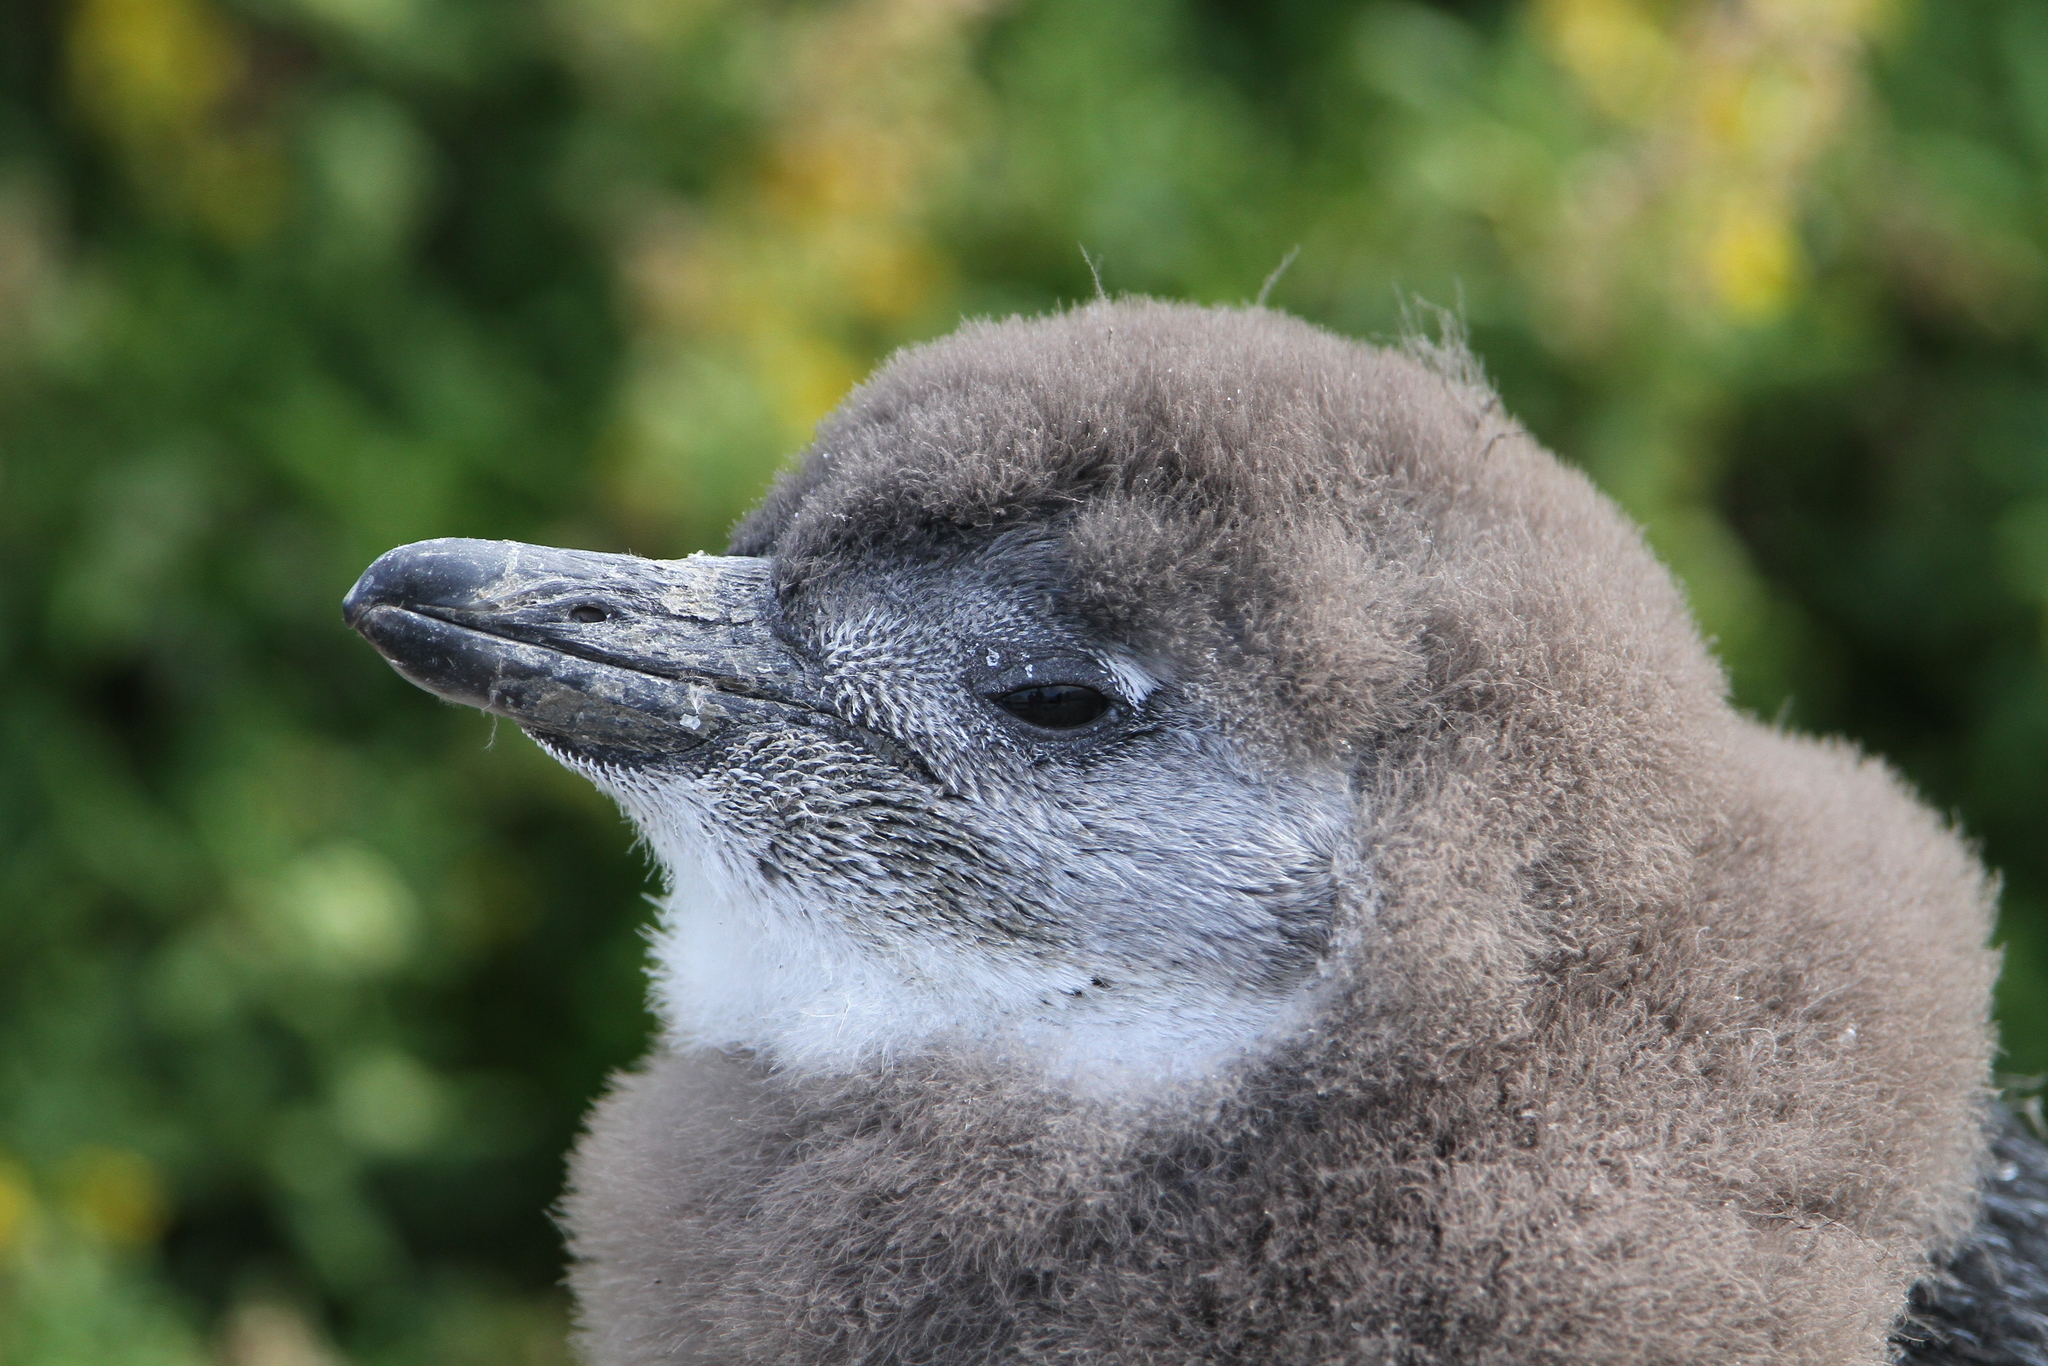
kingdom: Animalia
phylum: Chordata
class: Aves
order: Sphenisciformes
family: Spheniscidae
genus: Spheniscus
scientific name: Spheniscus demersus
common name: African penguin
